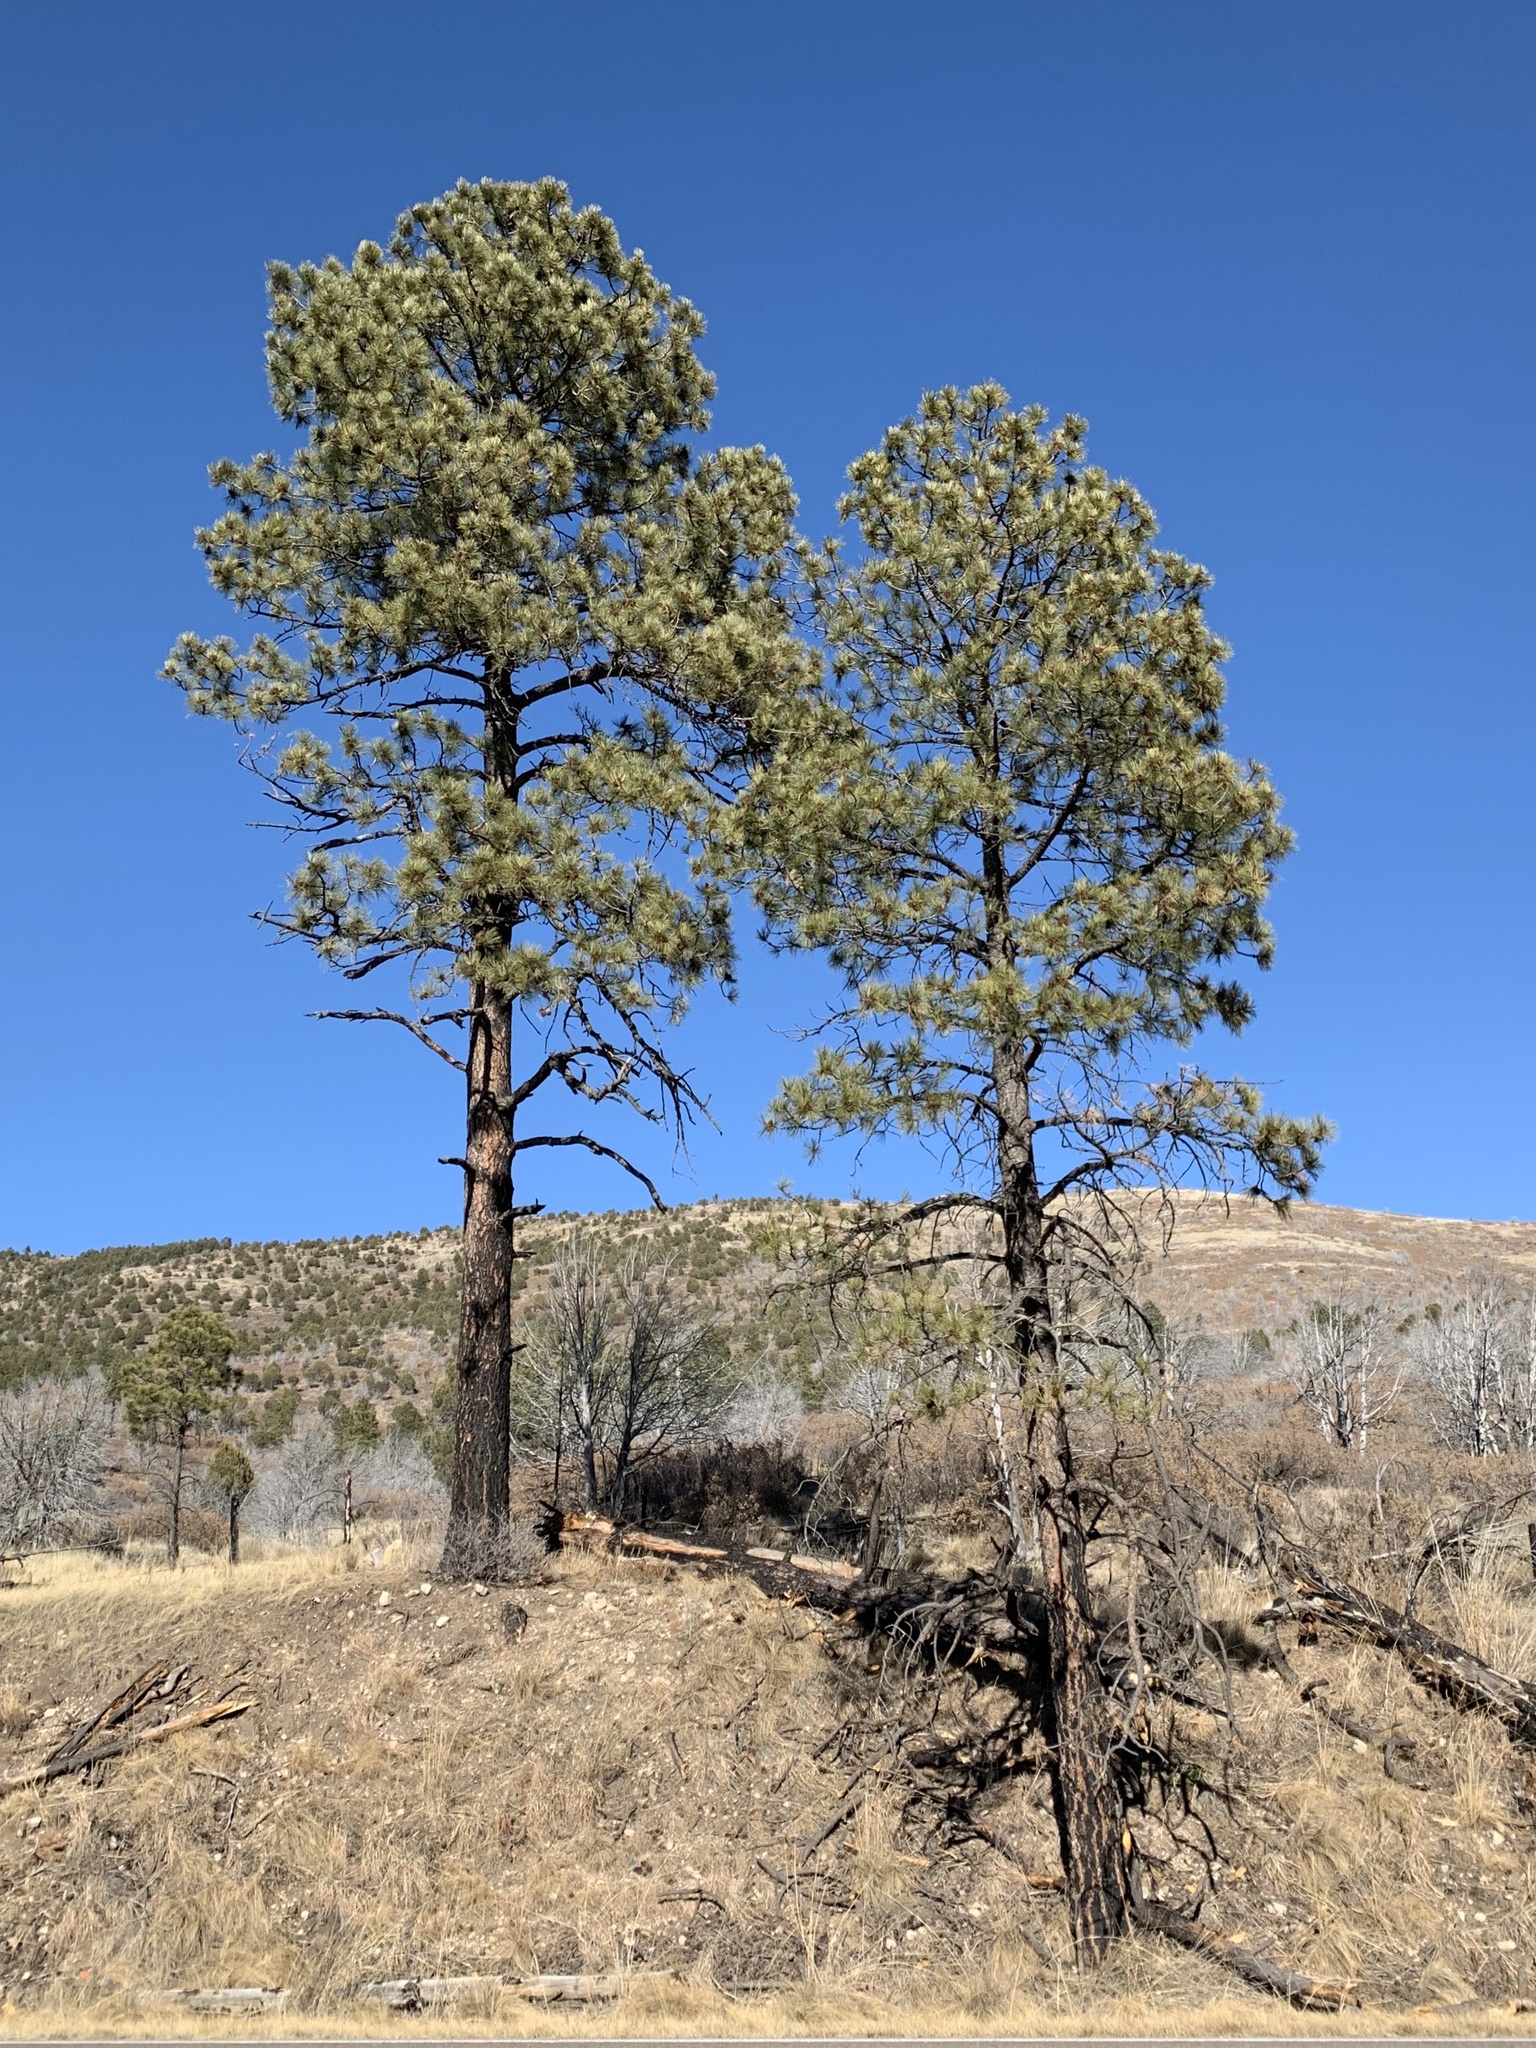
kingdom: Plantae
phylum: Tracheophyta
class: Pinopsida
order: Pinales
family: Pinaceae
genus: Pinus
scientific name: Pinus ponderosa
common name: Western yellow-pine
